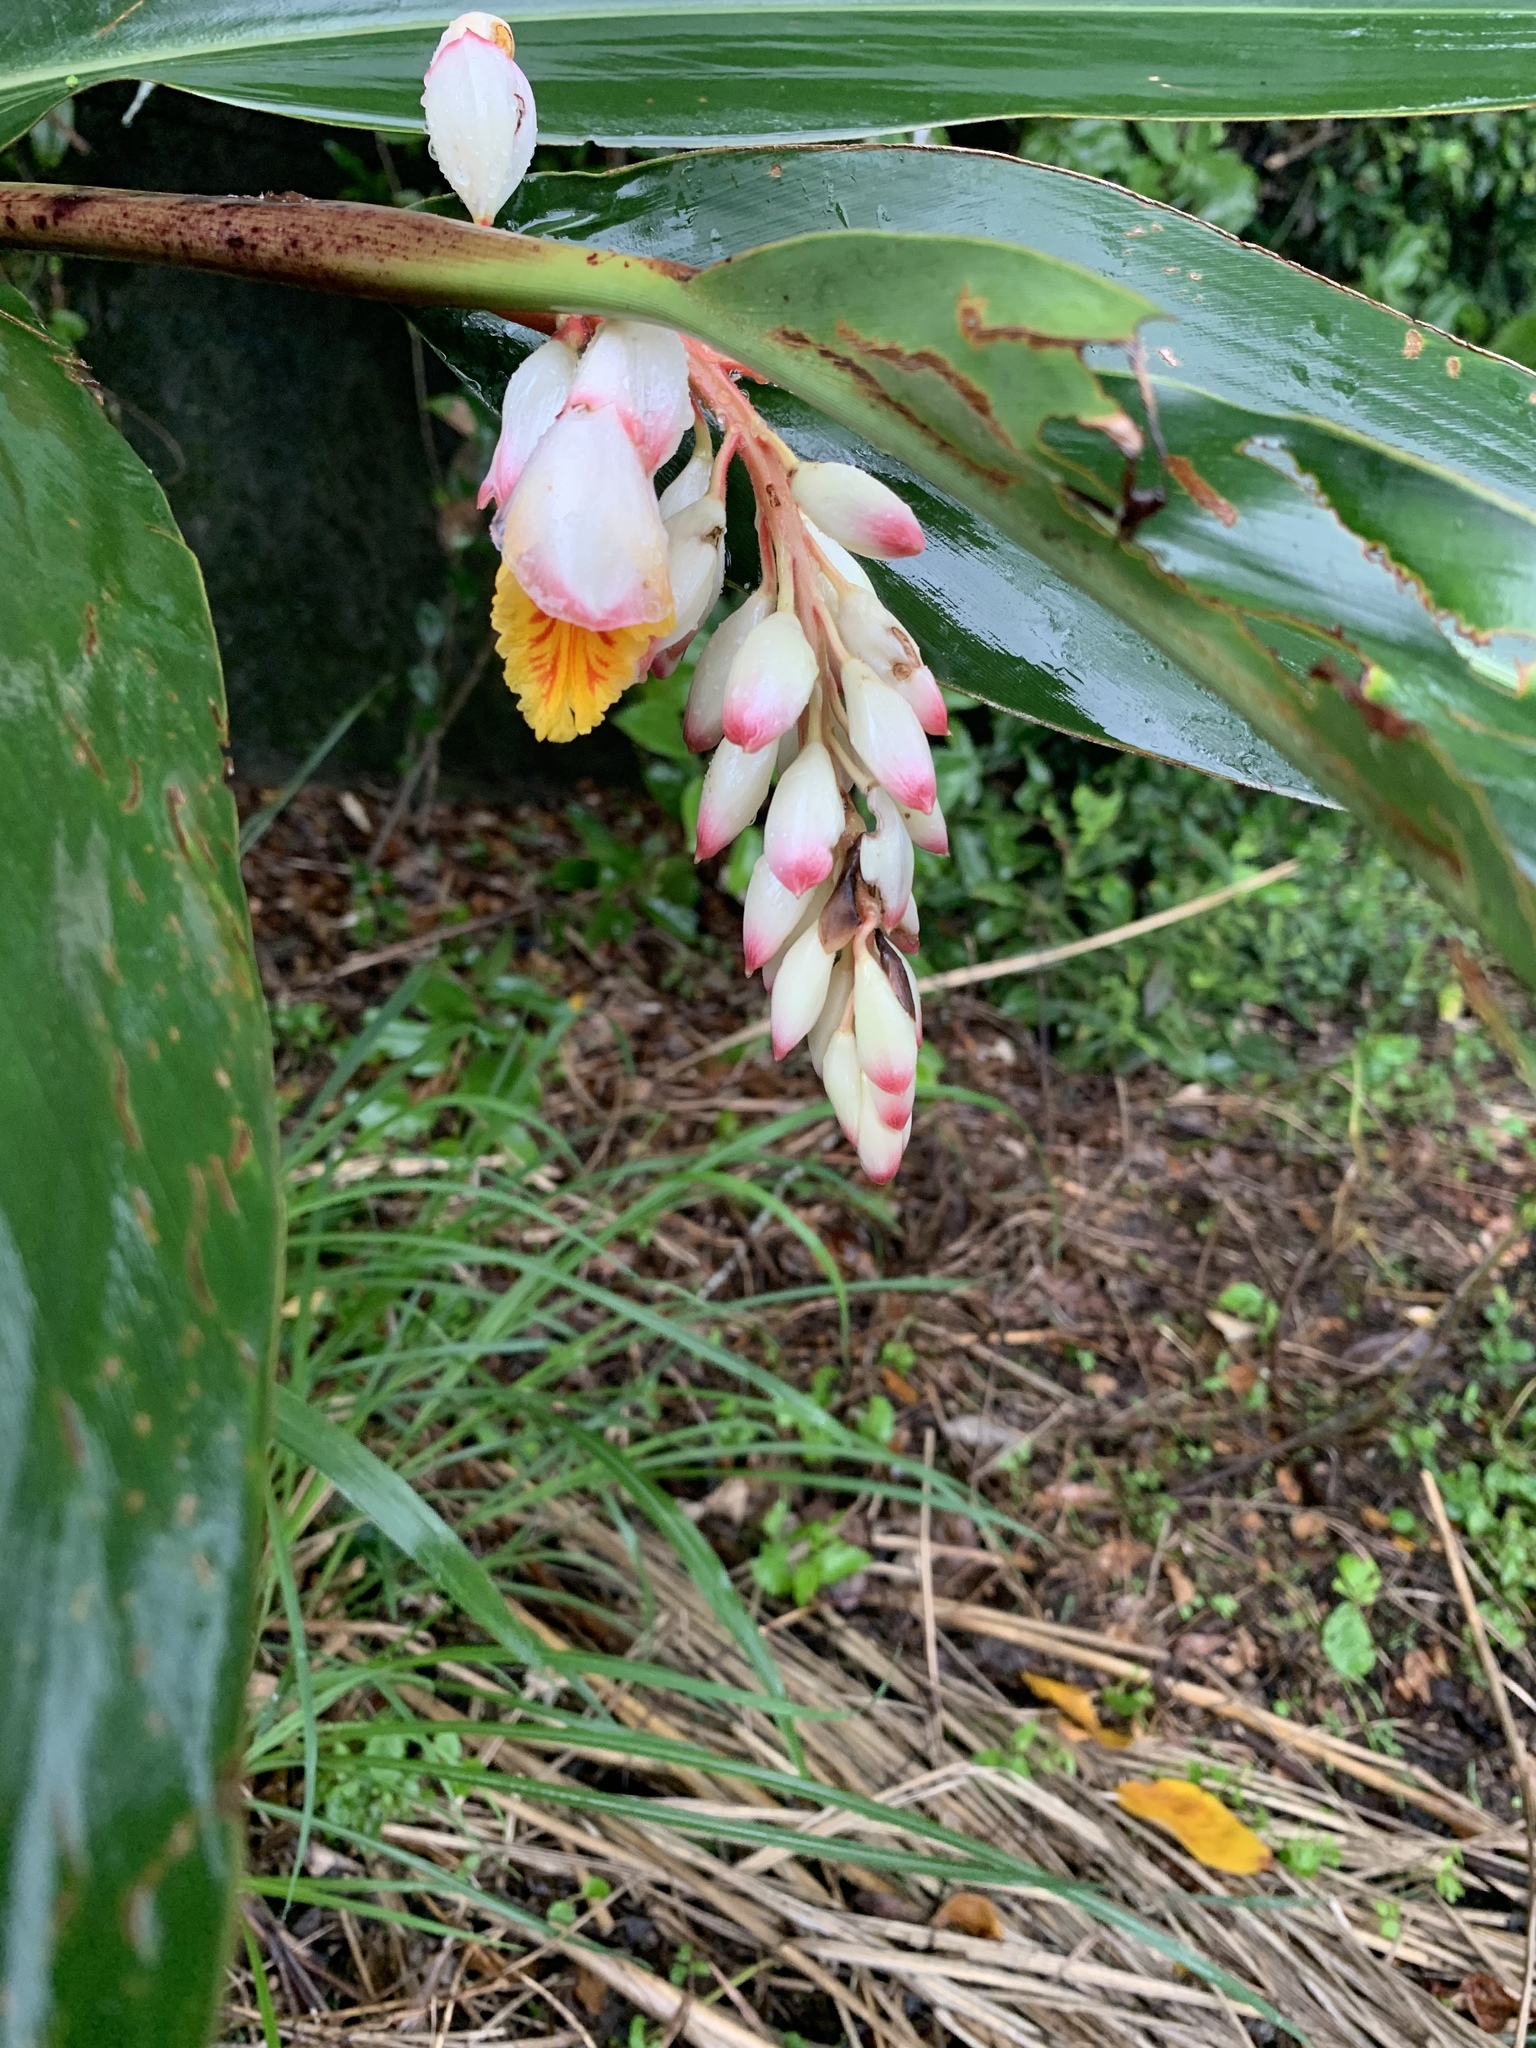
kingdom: Plantae
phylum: Tracheophyta
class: Liliopsida
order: Zingiberales
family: Zingiberaceae
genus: Alpinia
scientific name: Alpinia zerumbet
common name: Shellplant
